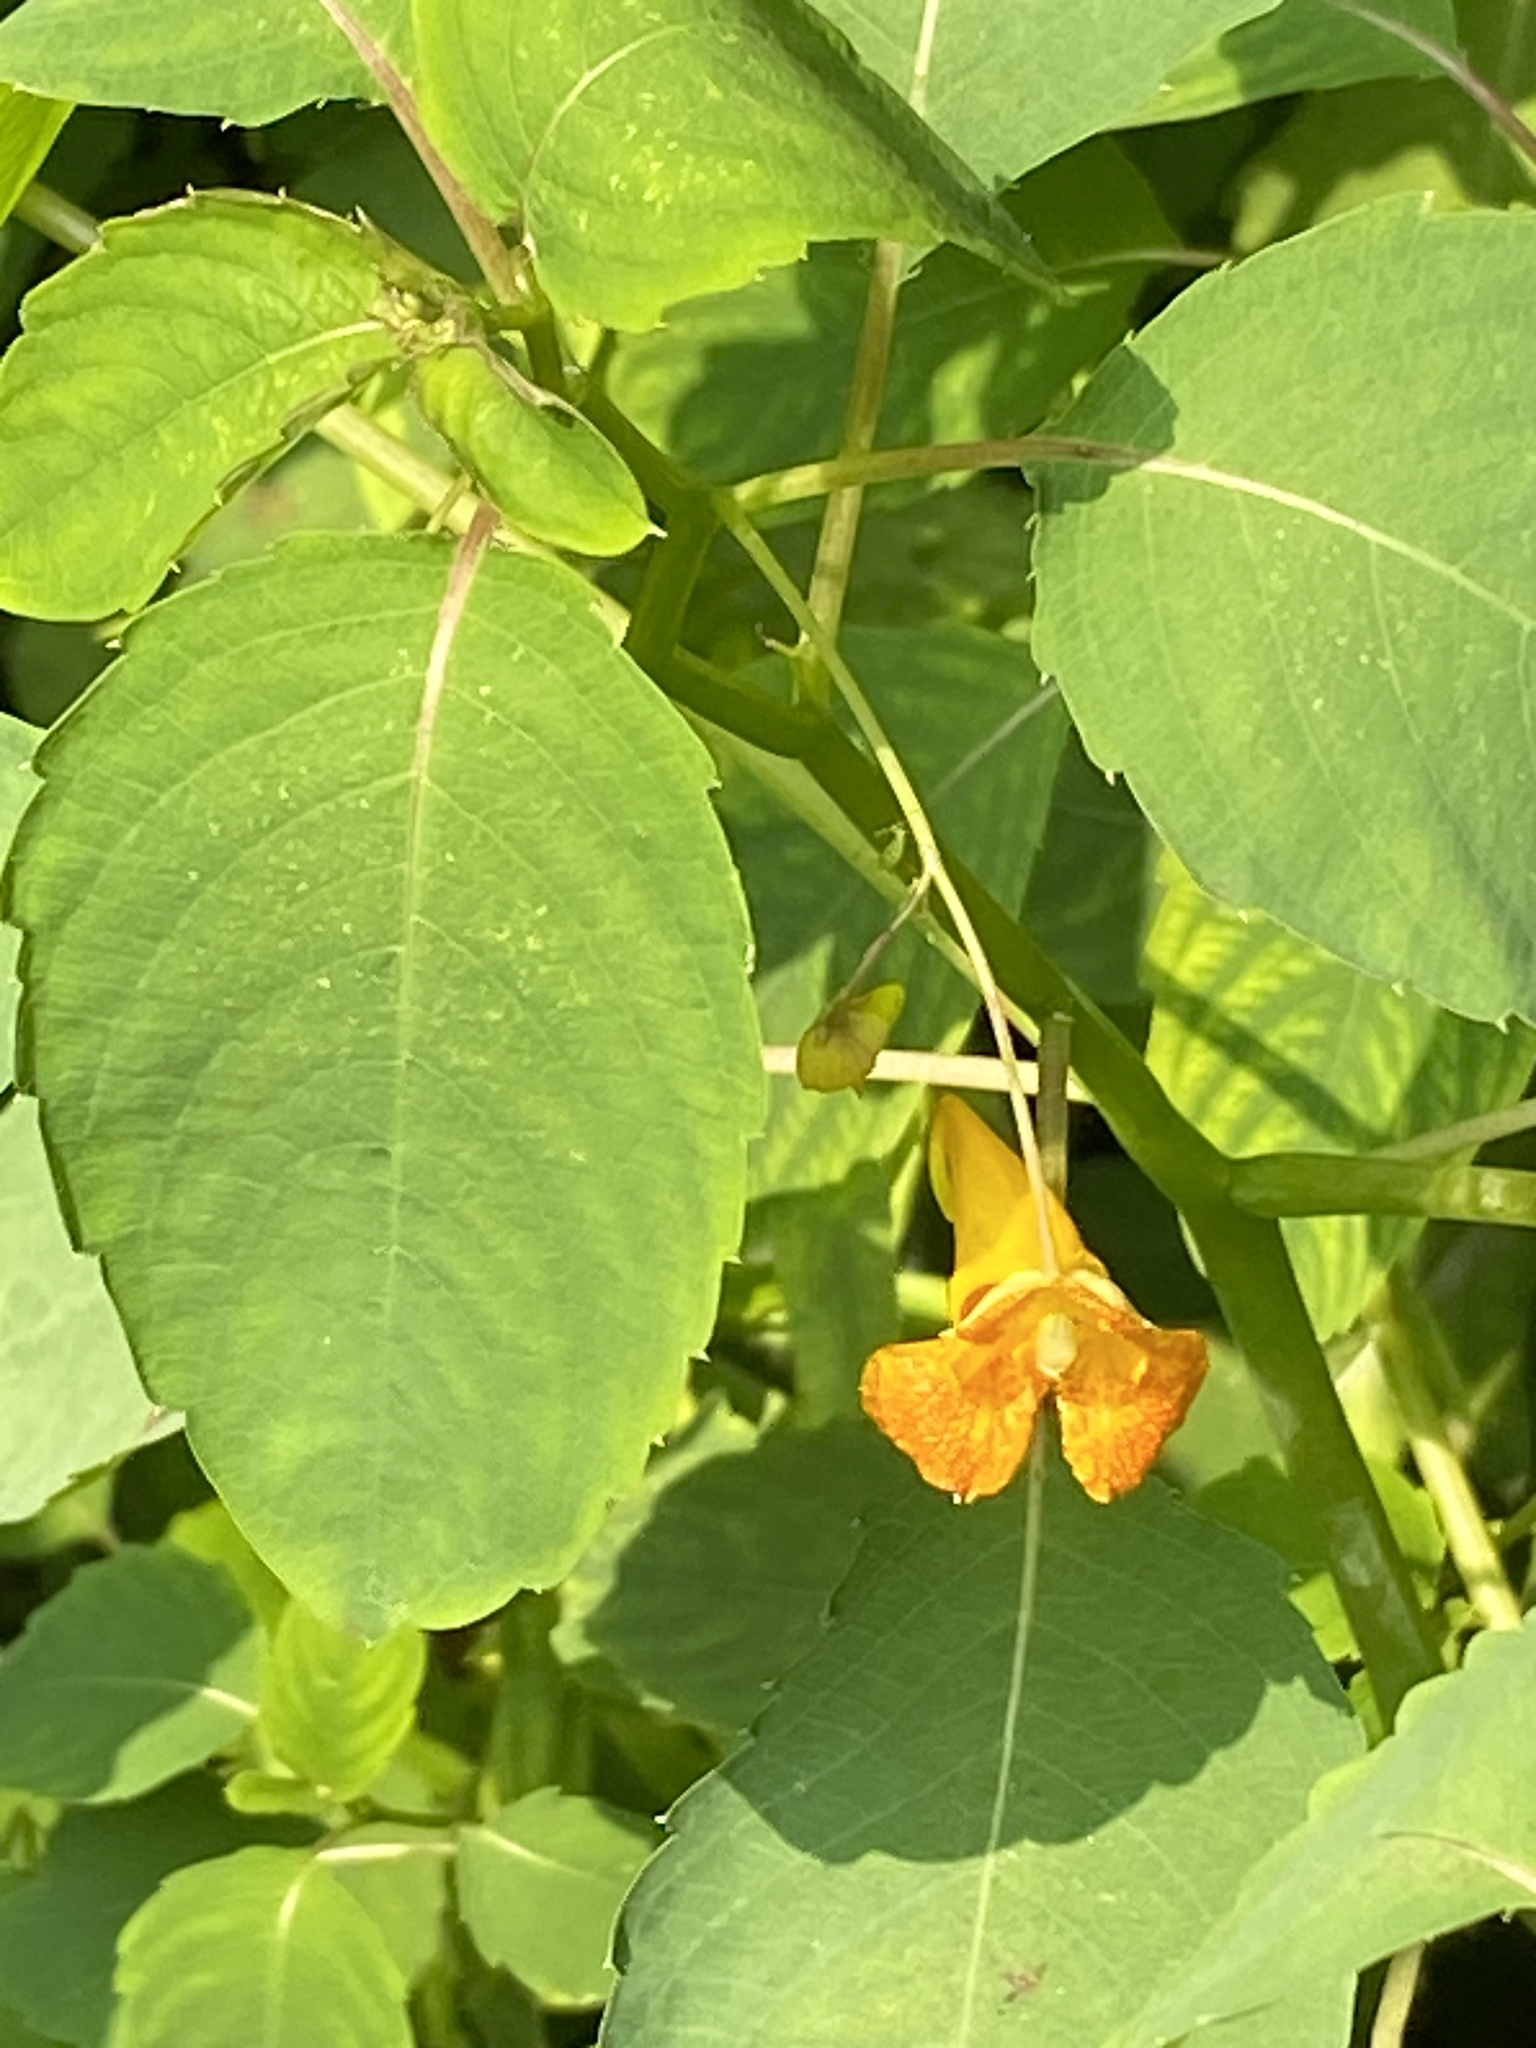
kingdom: Plantae
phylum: Tracheophyta
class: Magnoliopsida
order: Ericales
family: Balsaminaceae
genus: Impatiens
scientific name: Impatiens capensis
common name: Orange balsam
